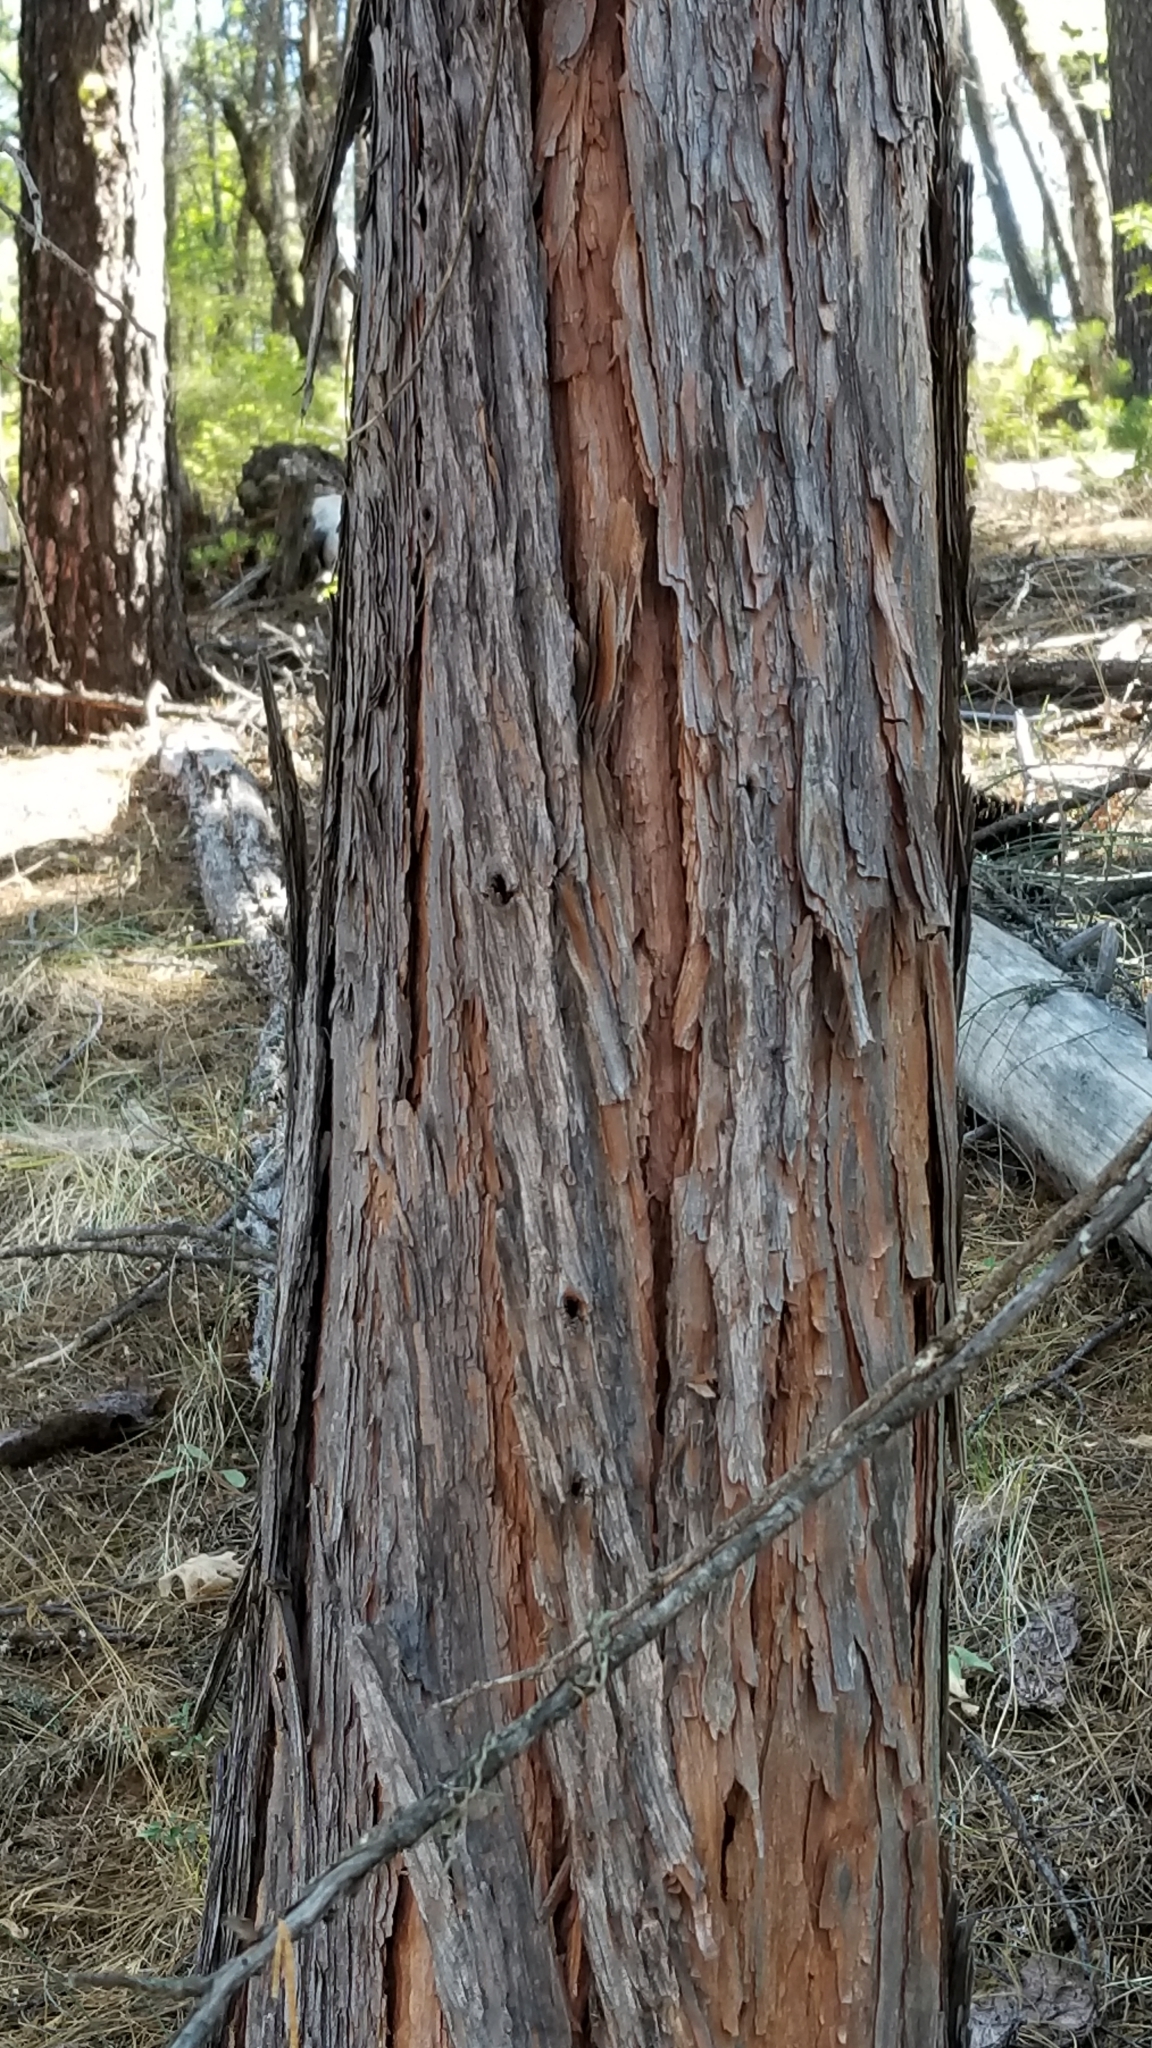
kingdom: Plantae
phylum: Tracheophyta
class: Pinopsida
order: Pinales
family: Cupressaceae
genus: Calocedrus
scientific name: Calocedrus decurrens
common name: Californian incense-cedar
